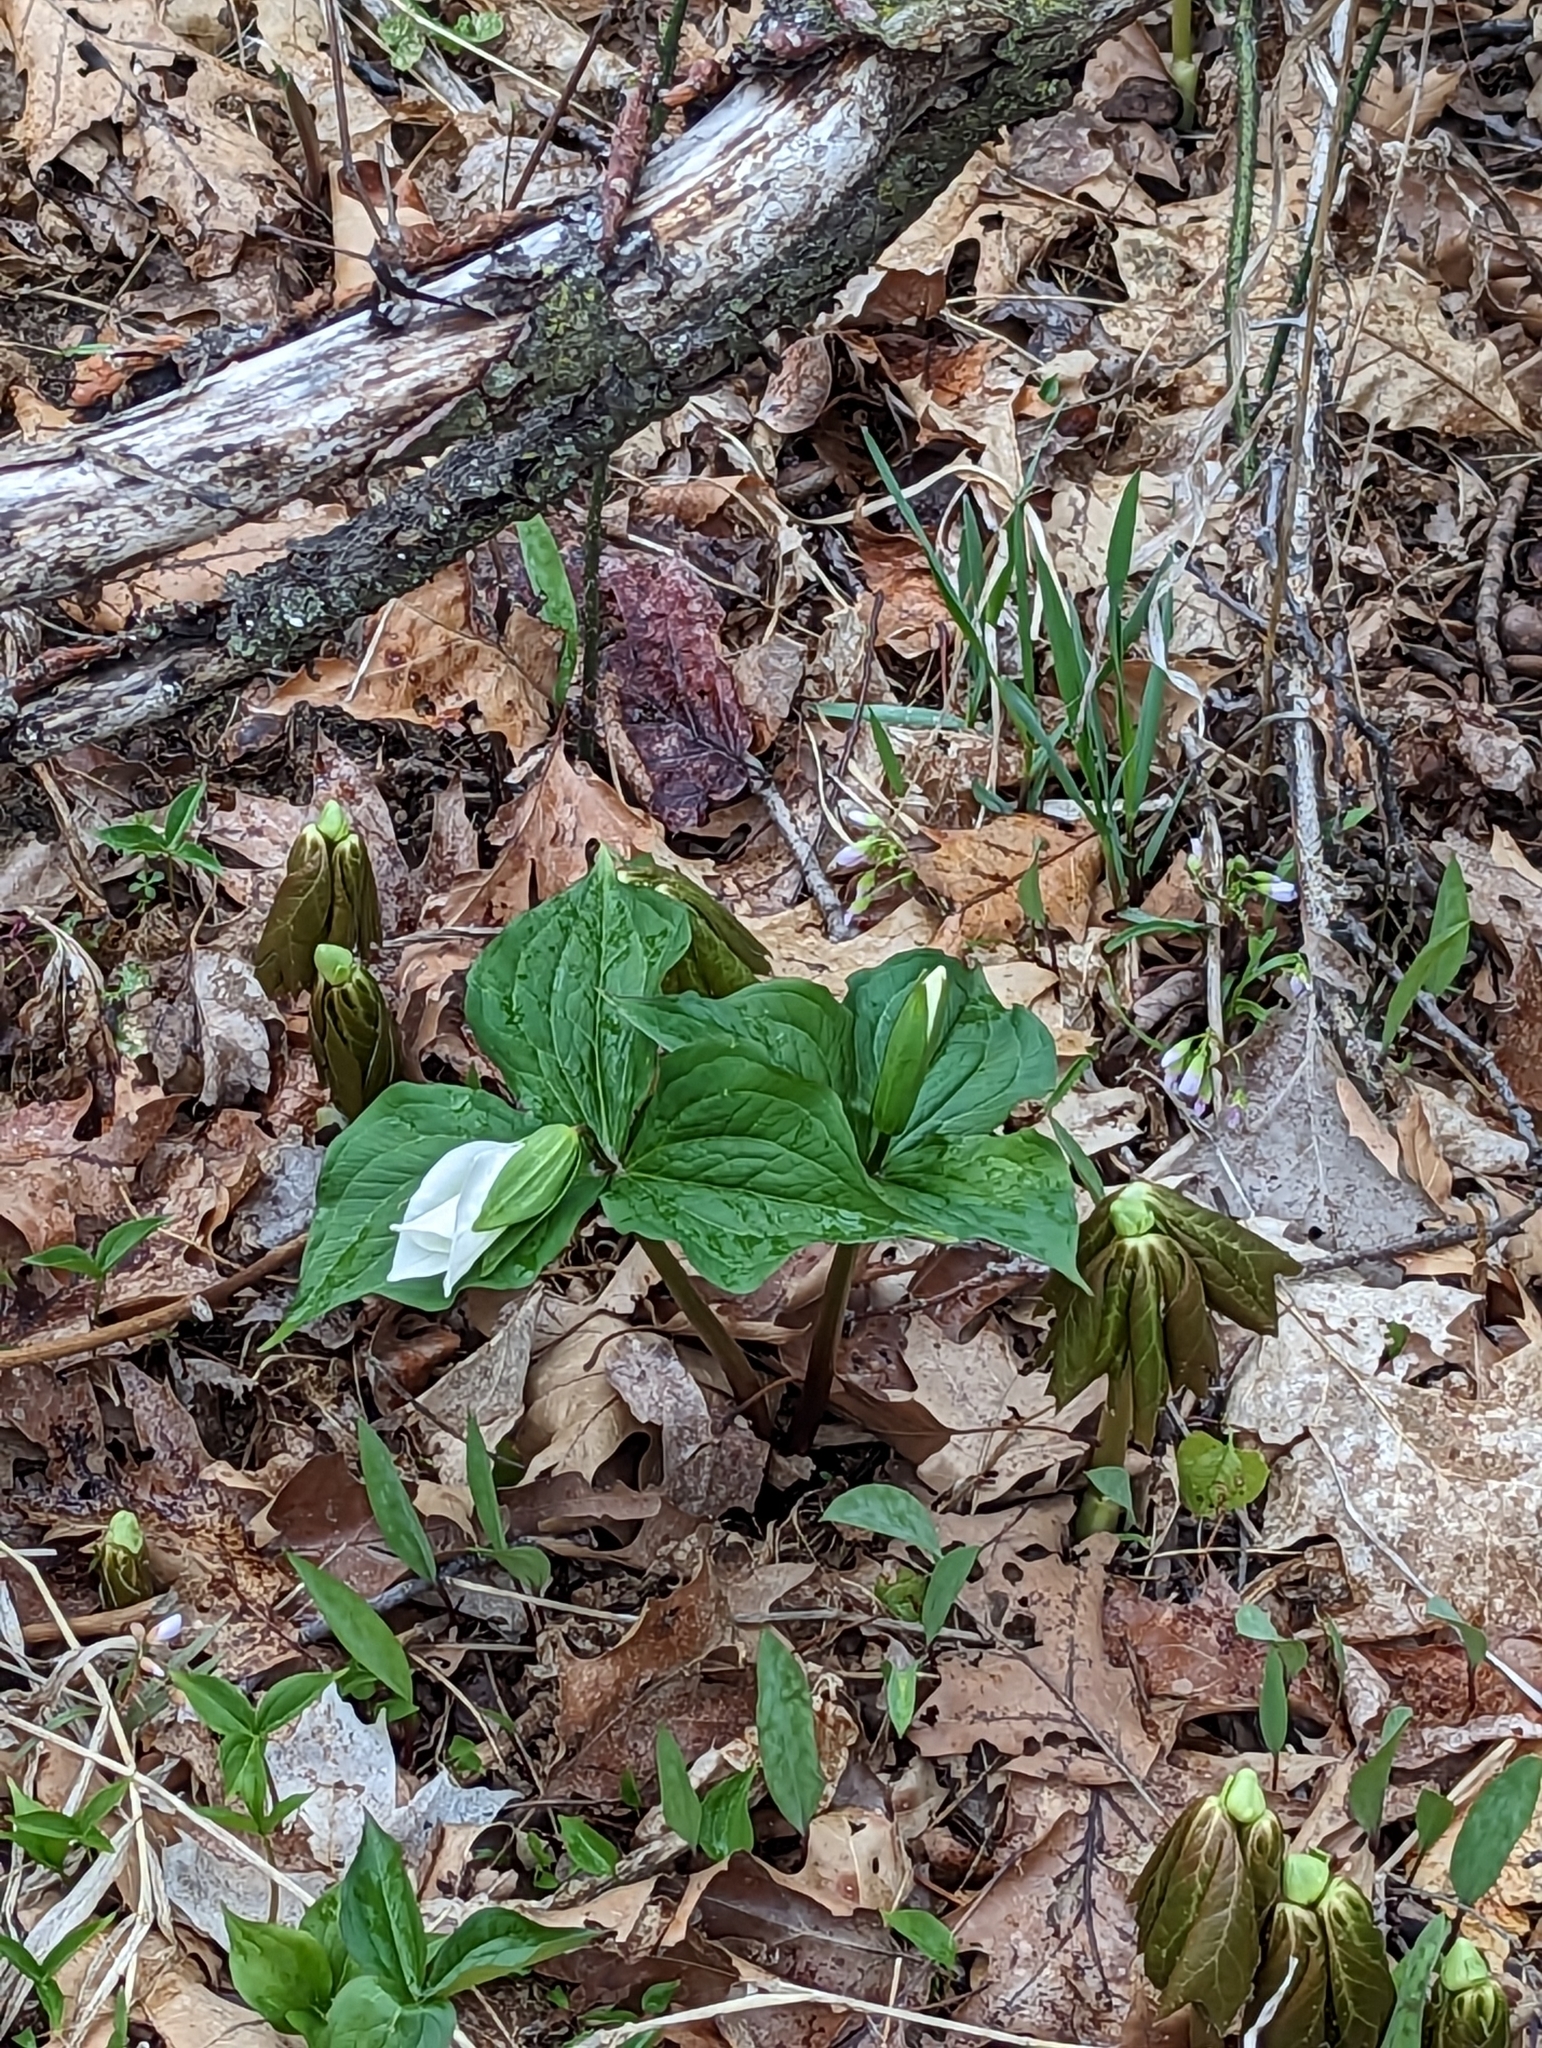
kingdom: Plantae
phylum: Tracheophyta
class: Liliopsida
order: Liliales
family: Melanthiaceae
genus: Trillium
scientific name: Trillium grandiflorum
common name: Great white trillium
